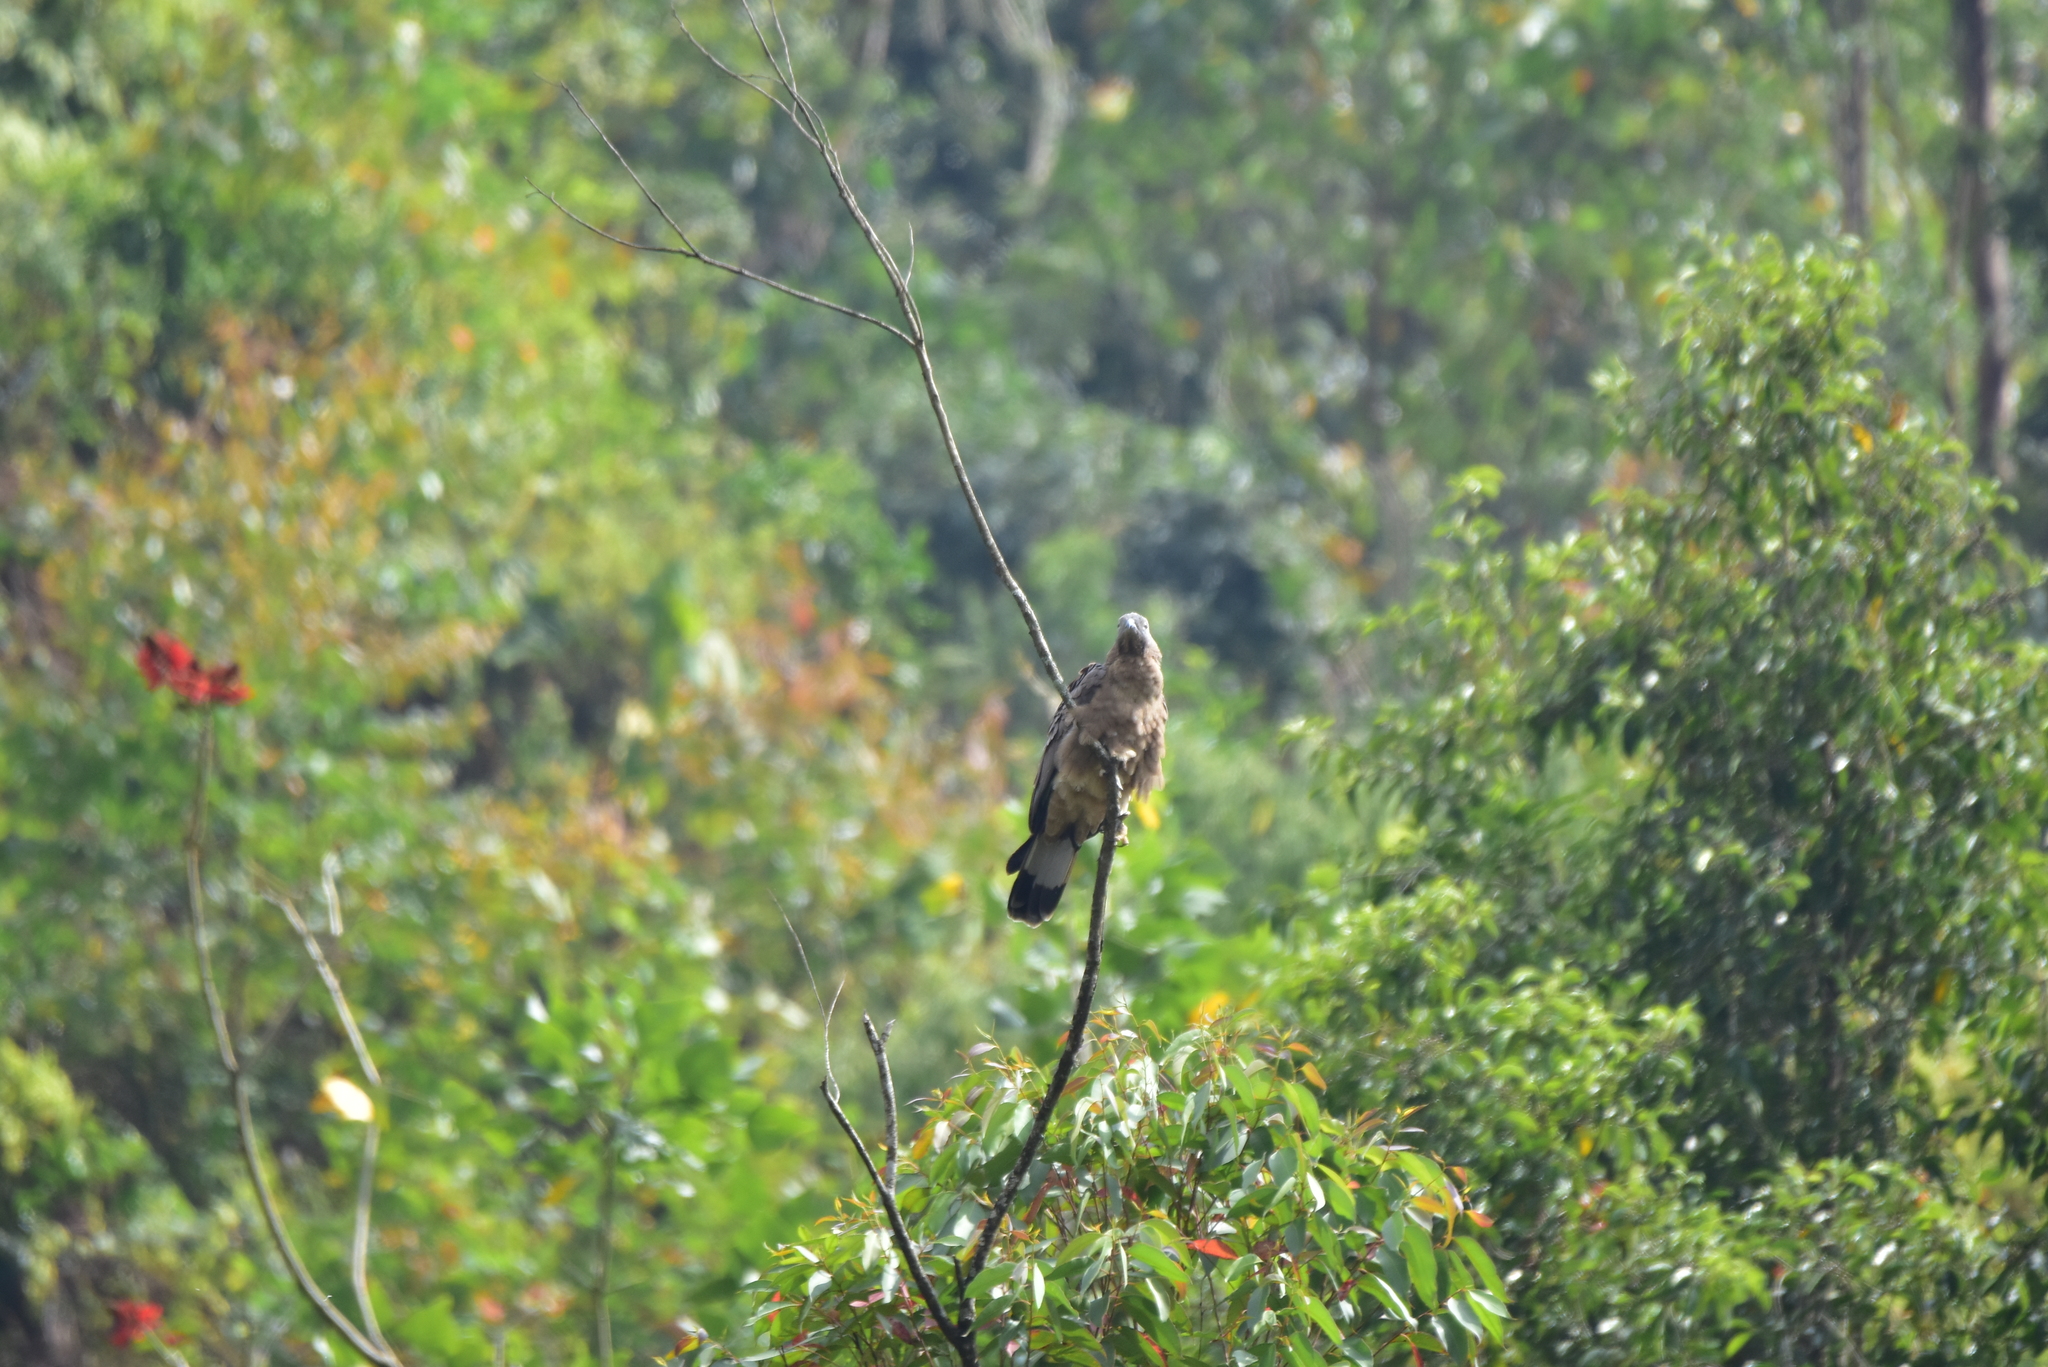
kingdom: Animalia
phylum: Chordata
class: Aves
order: Accipitriformes
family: Accipitridae
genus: Pernis
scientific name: Pernis ptilorhynchus
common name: Crested honey buzzard
